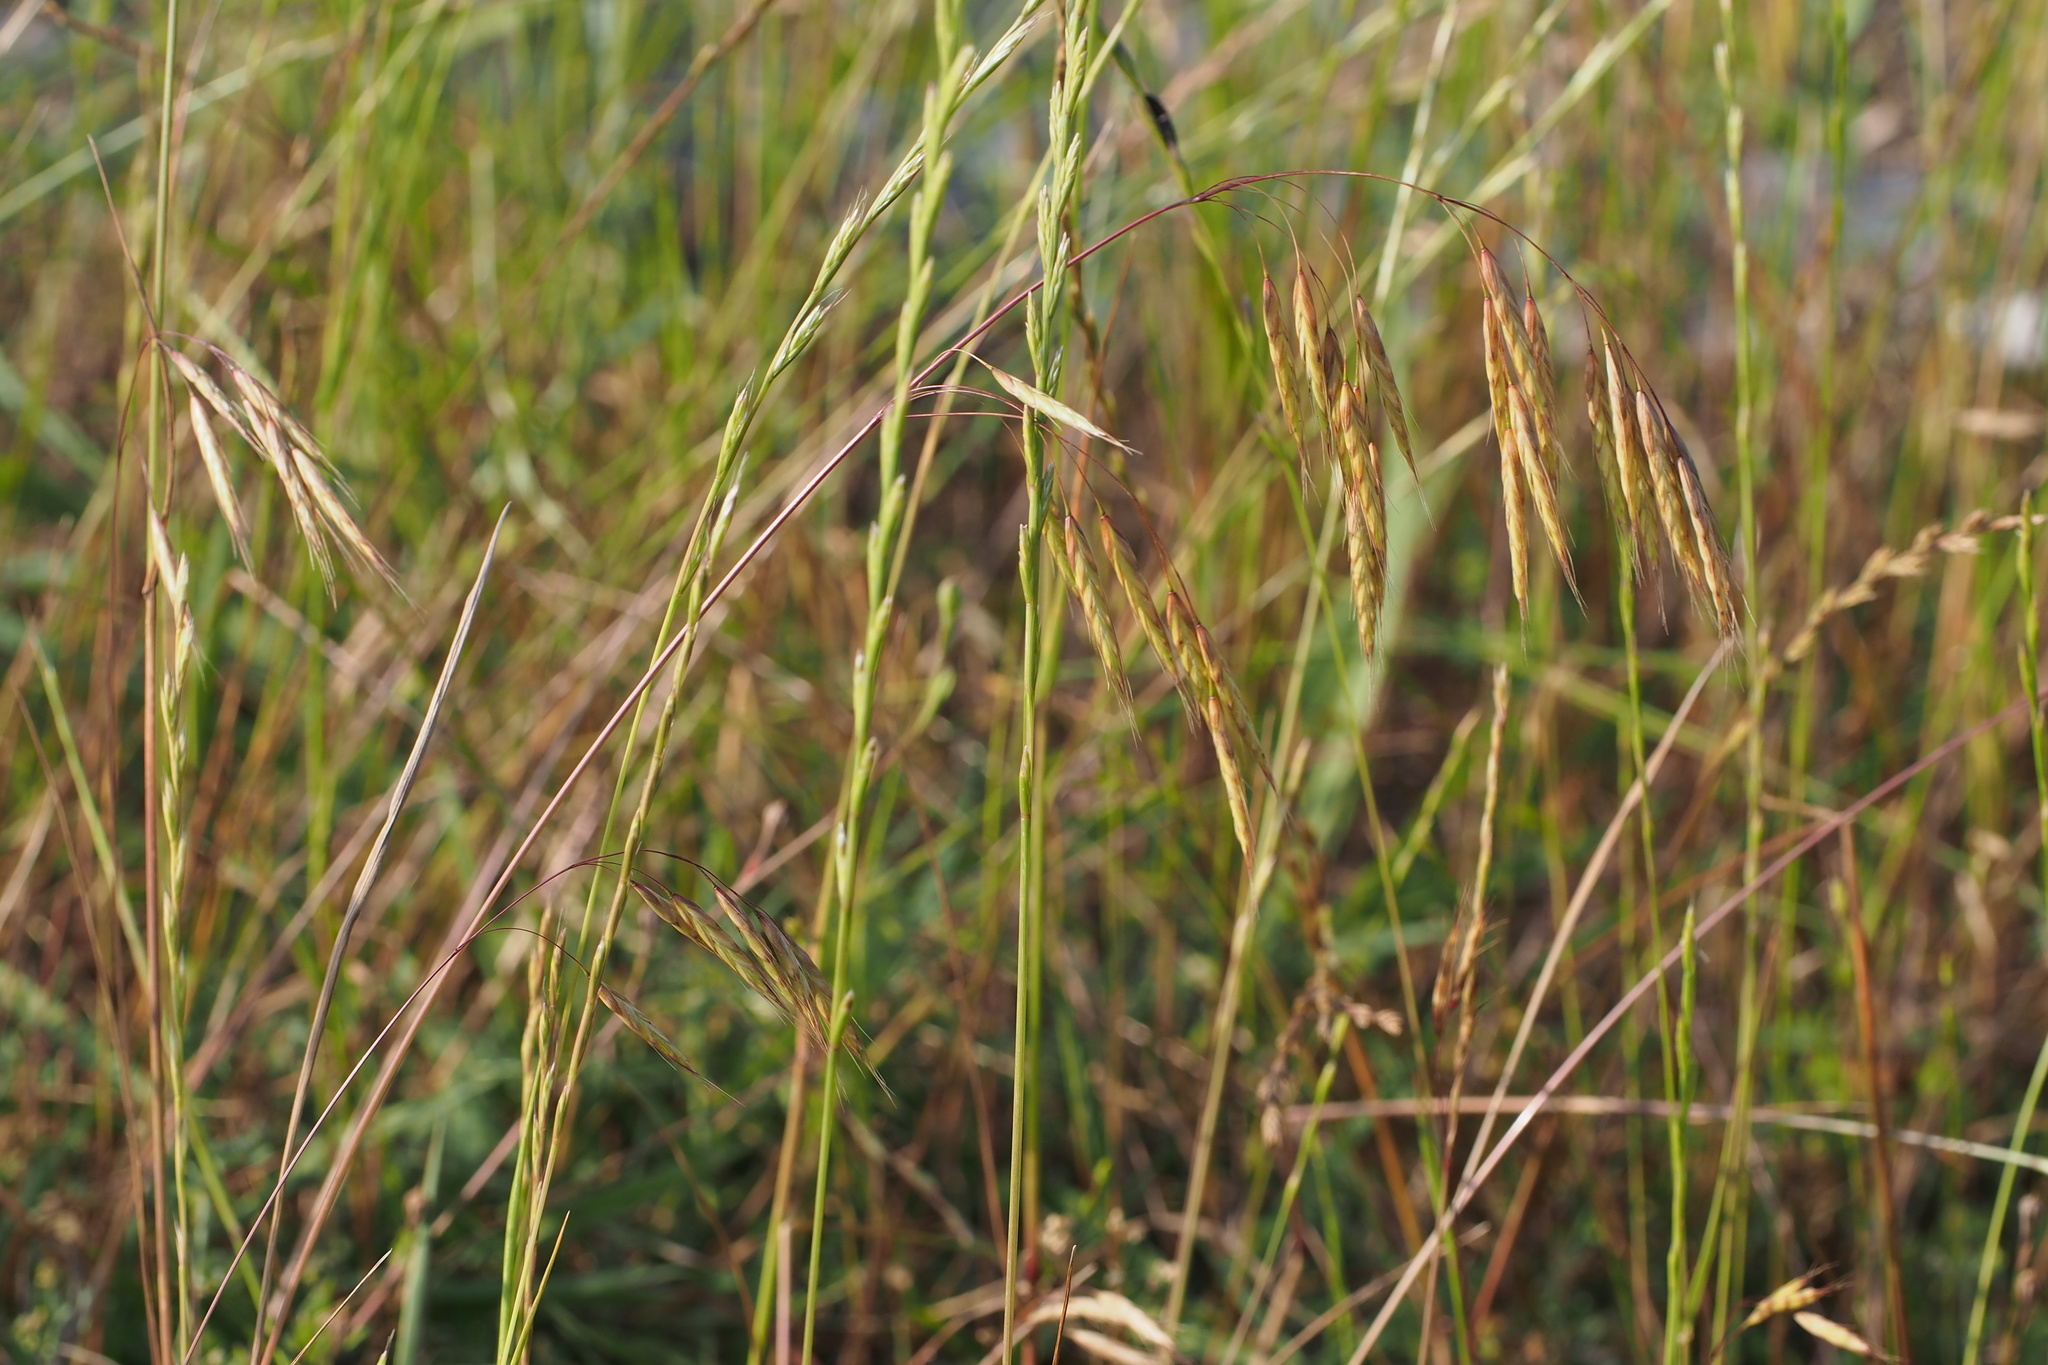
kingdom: Plantae
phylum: Tracheophyta
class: Liliopsida
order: Poales
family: Poaceae
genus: Bromus
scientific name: Bromus japonicus
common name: Japanese brome
